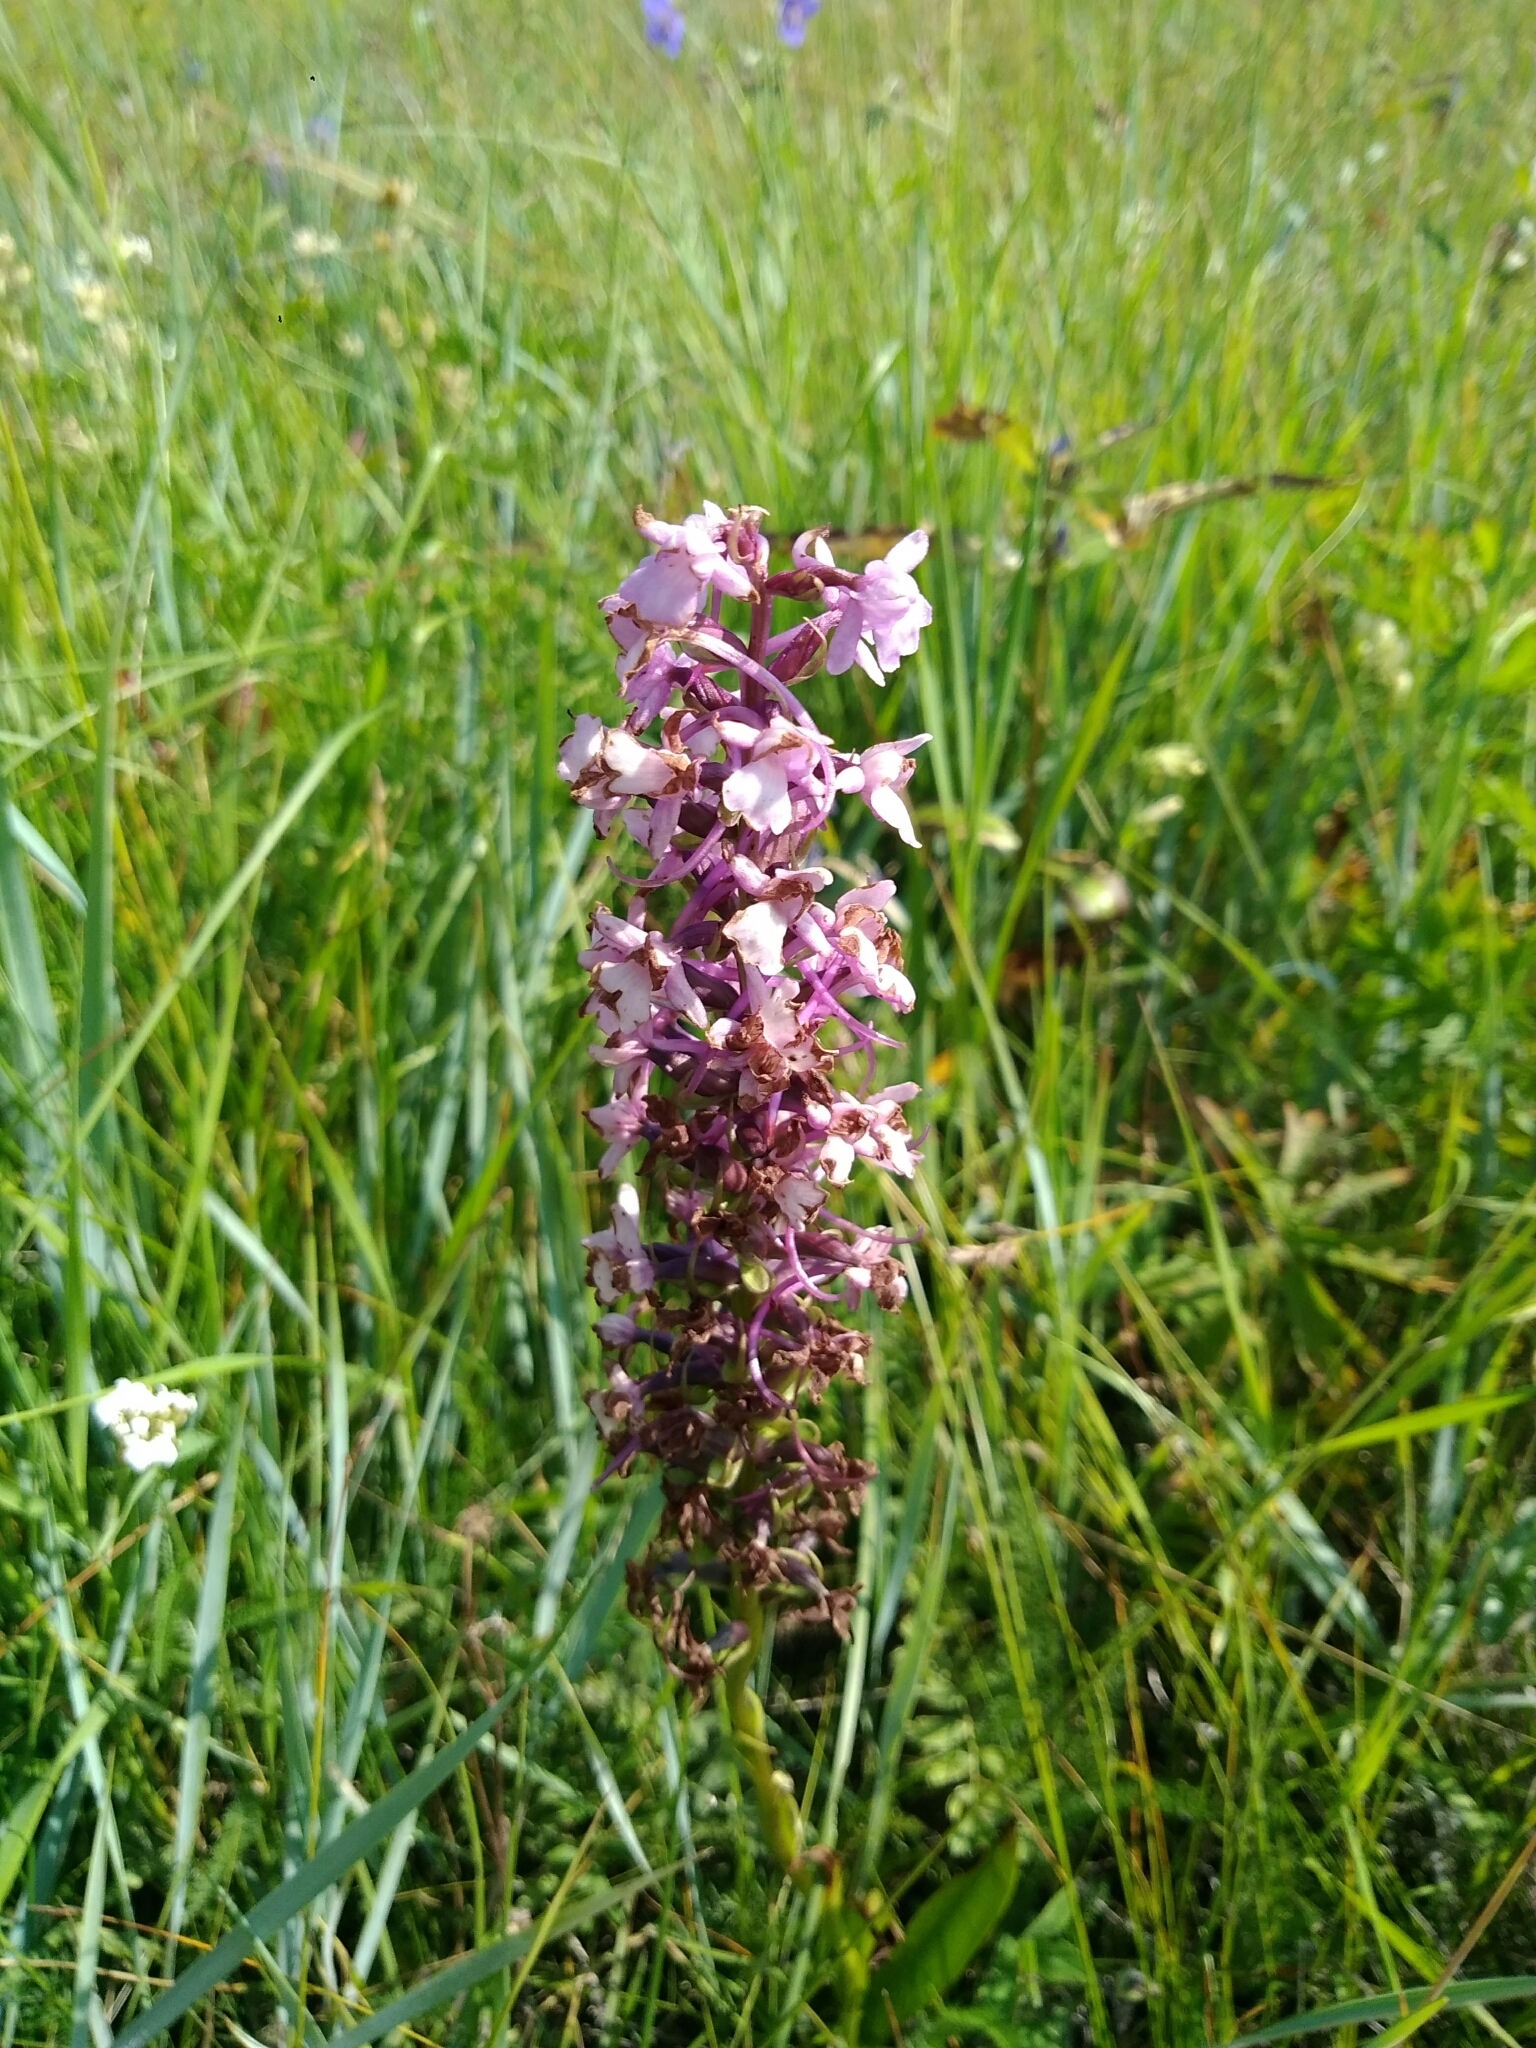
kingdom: Plantae
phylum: Tracheophyta
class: Liliopsida
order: Asparagales
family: Orchidaceae
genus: Gymnadenia
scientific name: Gymnadenia conopsea
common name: Fragrant orchid
